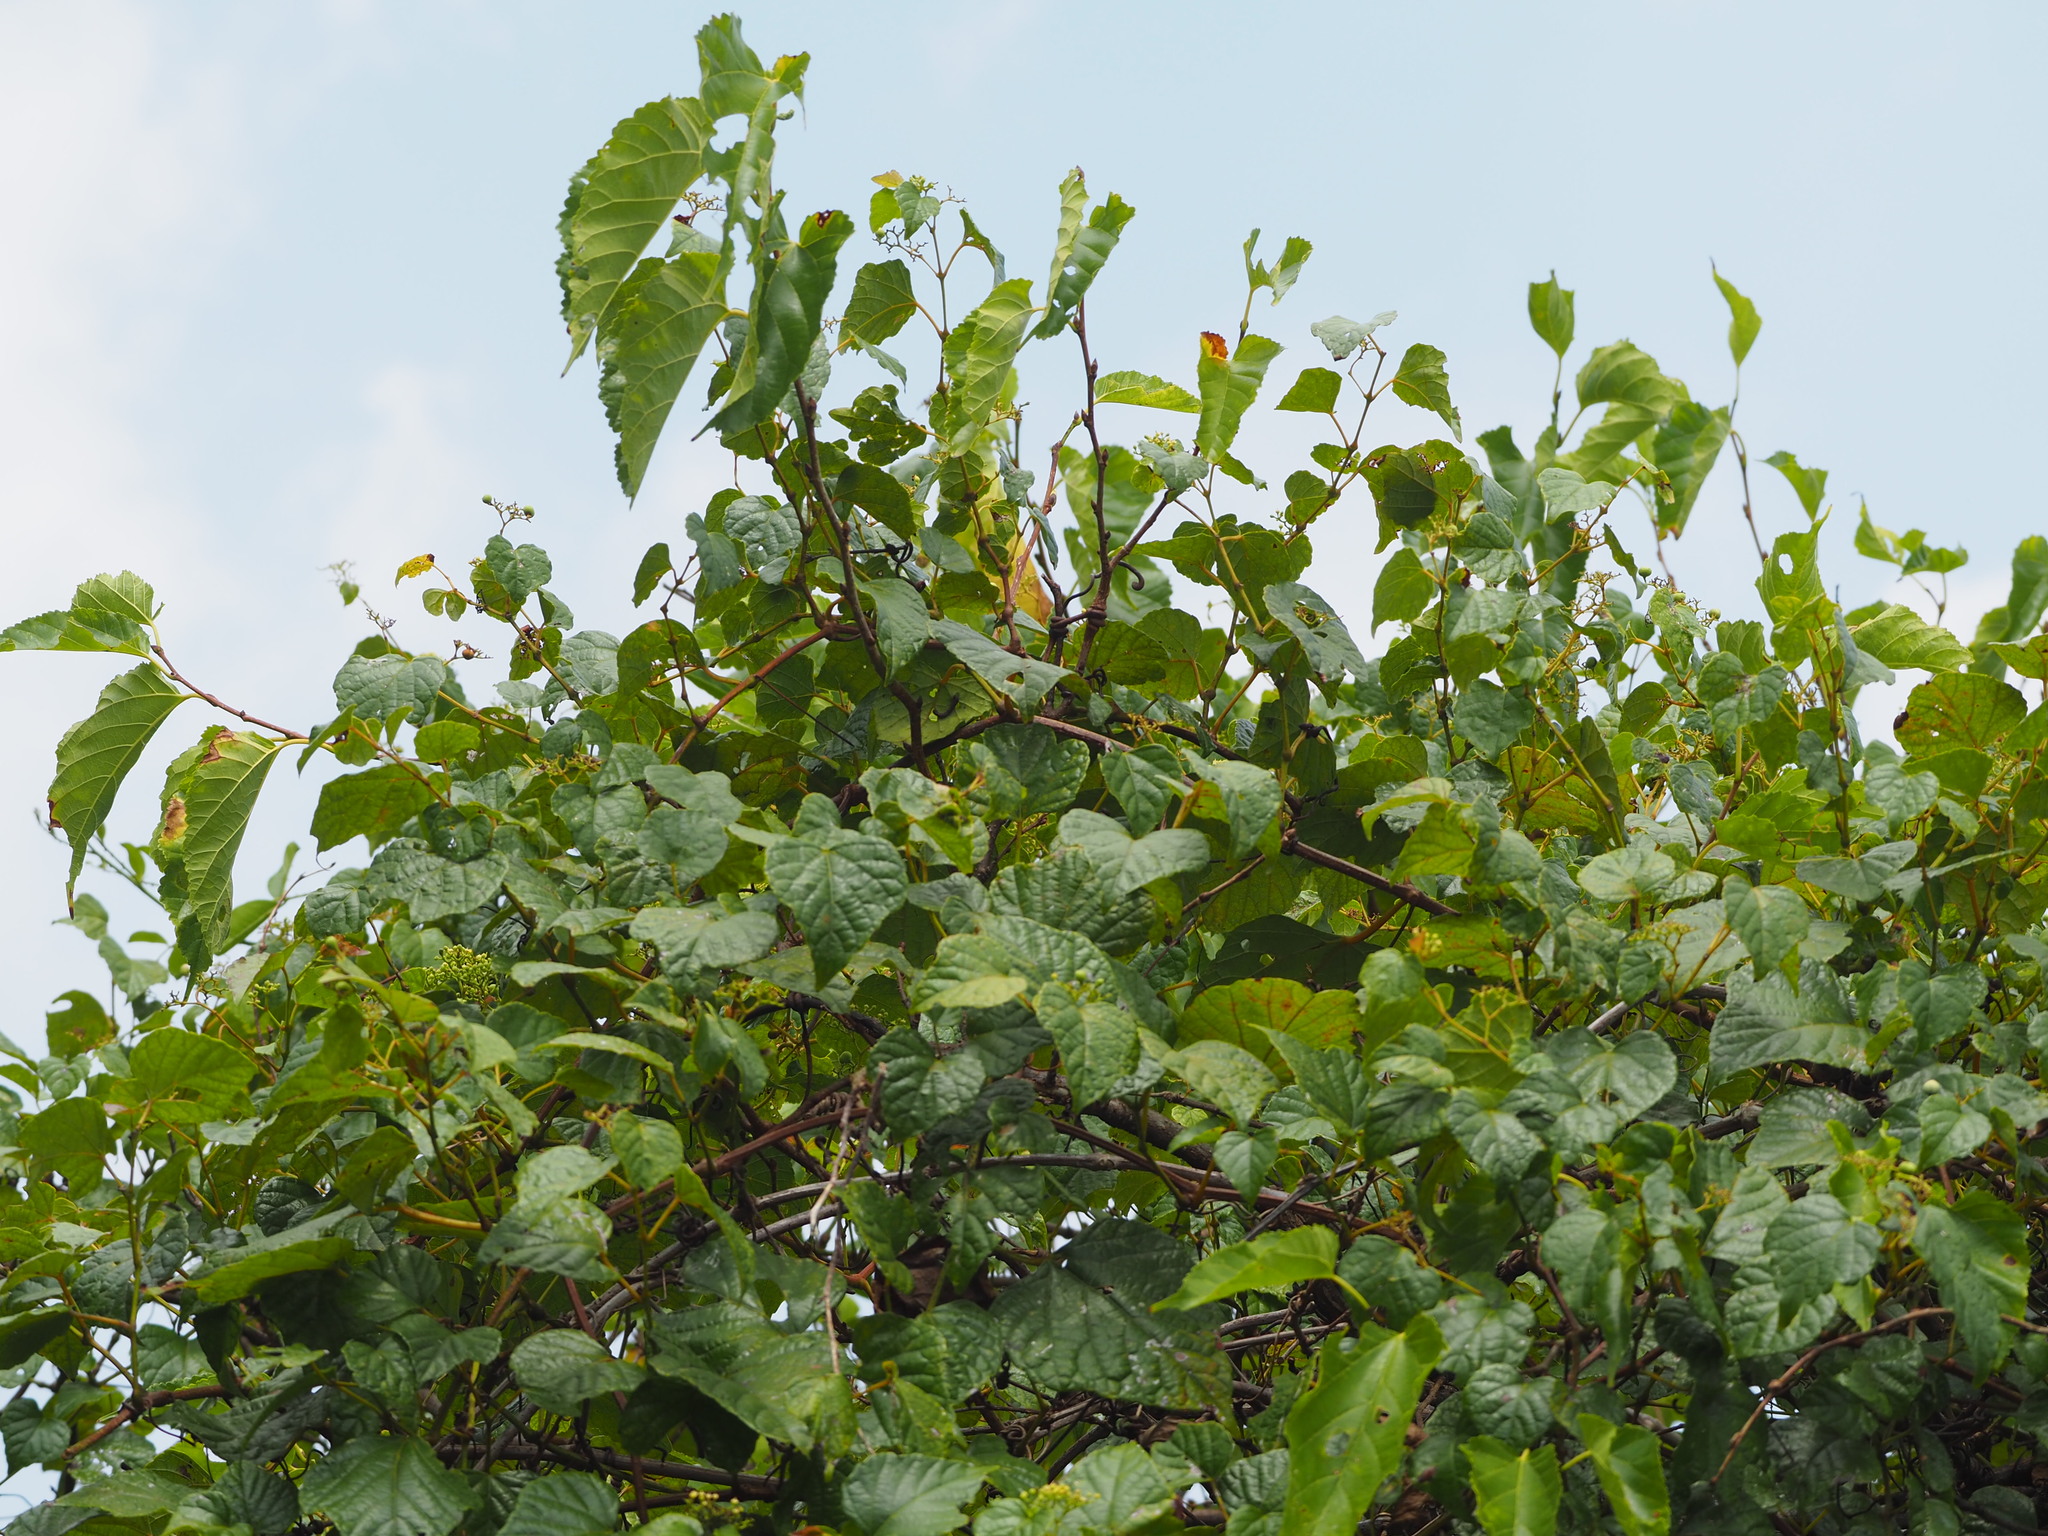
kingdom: Plantae
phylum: Tracheophyta
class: Magnoliopsida
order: Vitales
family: Vitaceae
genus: Ampelopsis
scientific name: Ampelopsis glandulosa
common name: Amur peppervine
